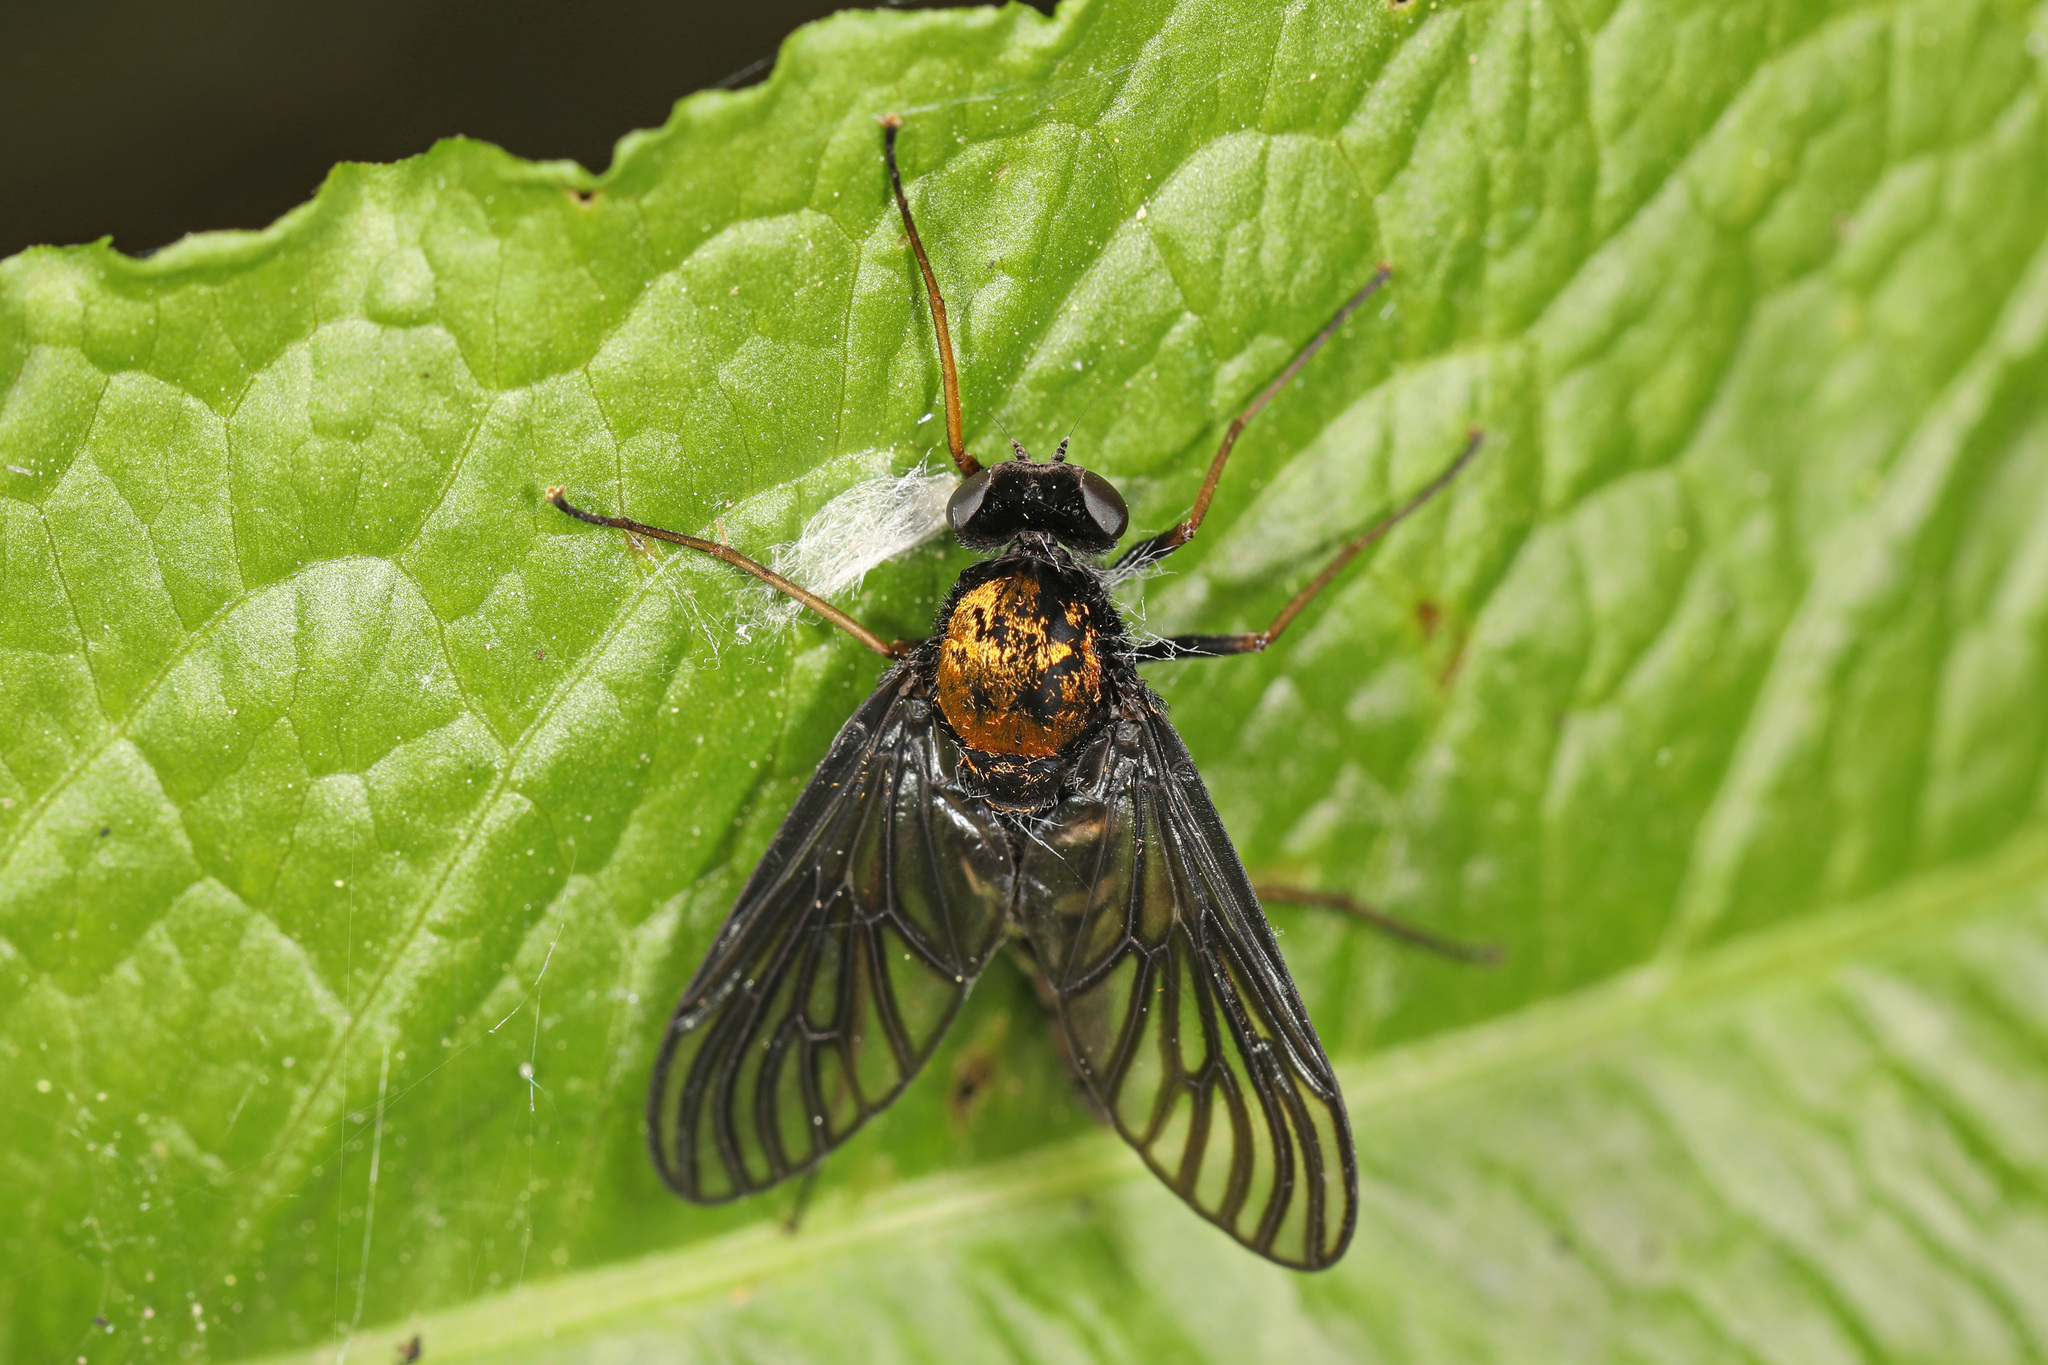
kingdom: Animalia
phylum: Arthropoda
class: Insecta
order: Diptera
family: Rhagionidae
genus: Chrysopilus
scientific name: Chrysopilus thoracicus
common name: Golden-backed snipe fly
